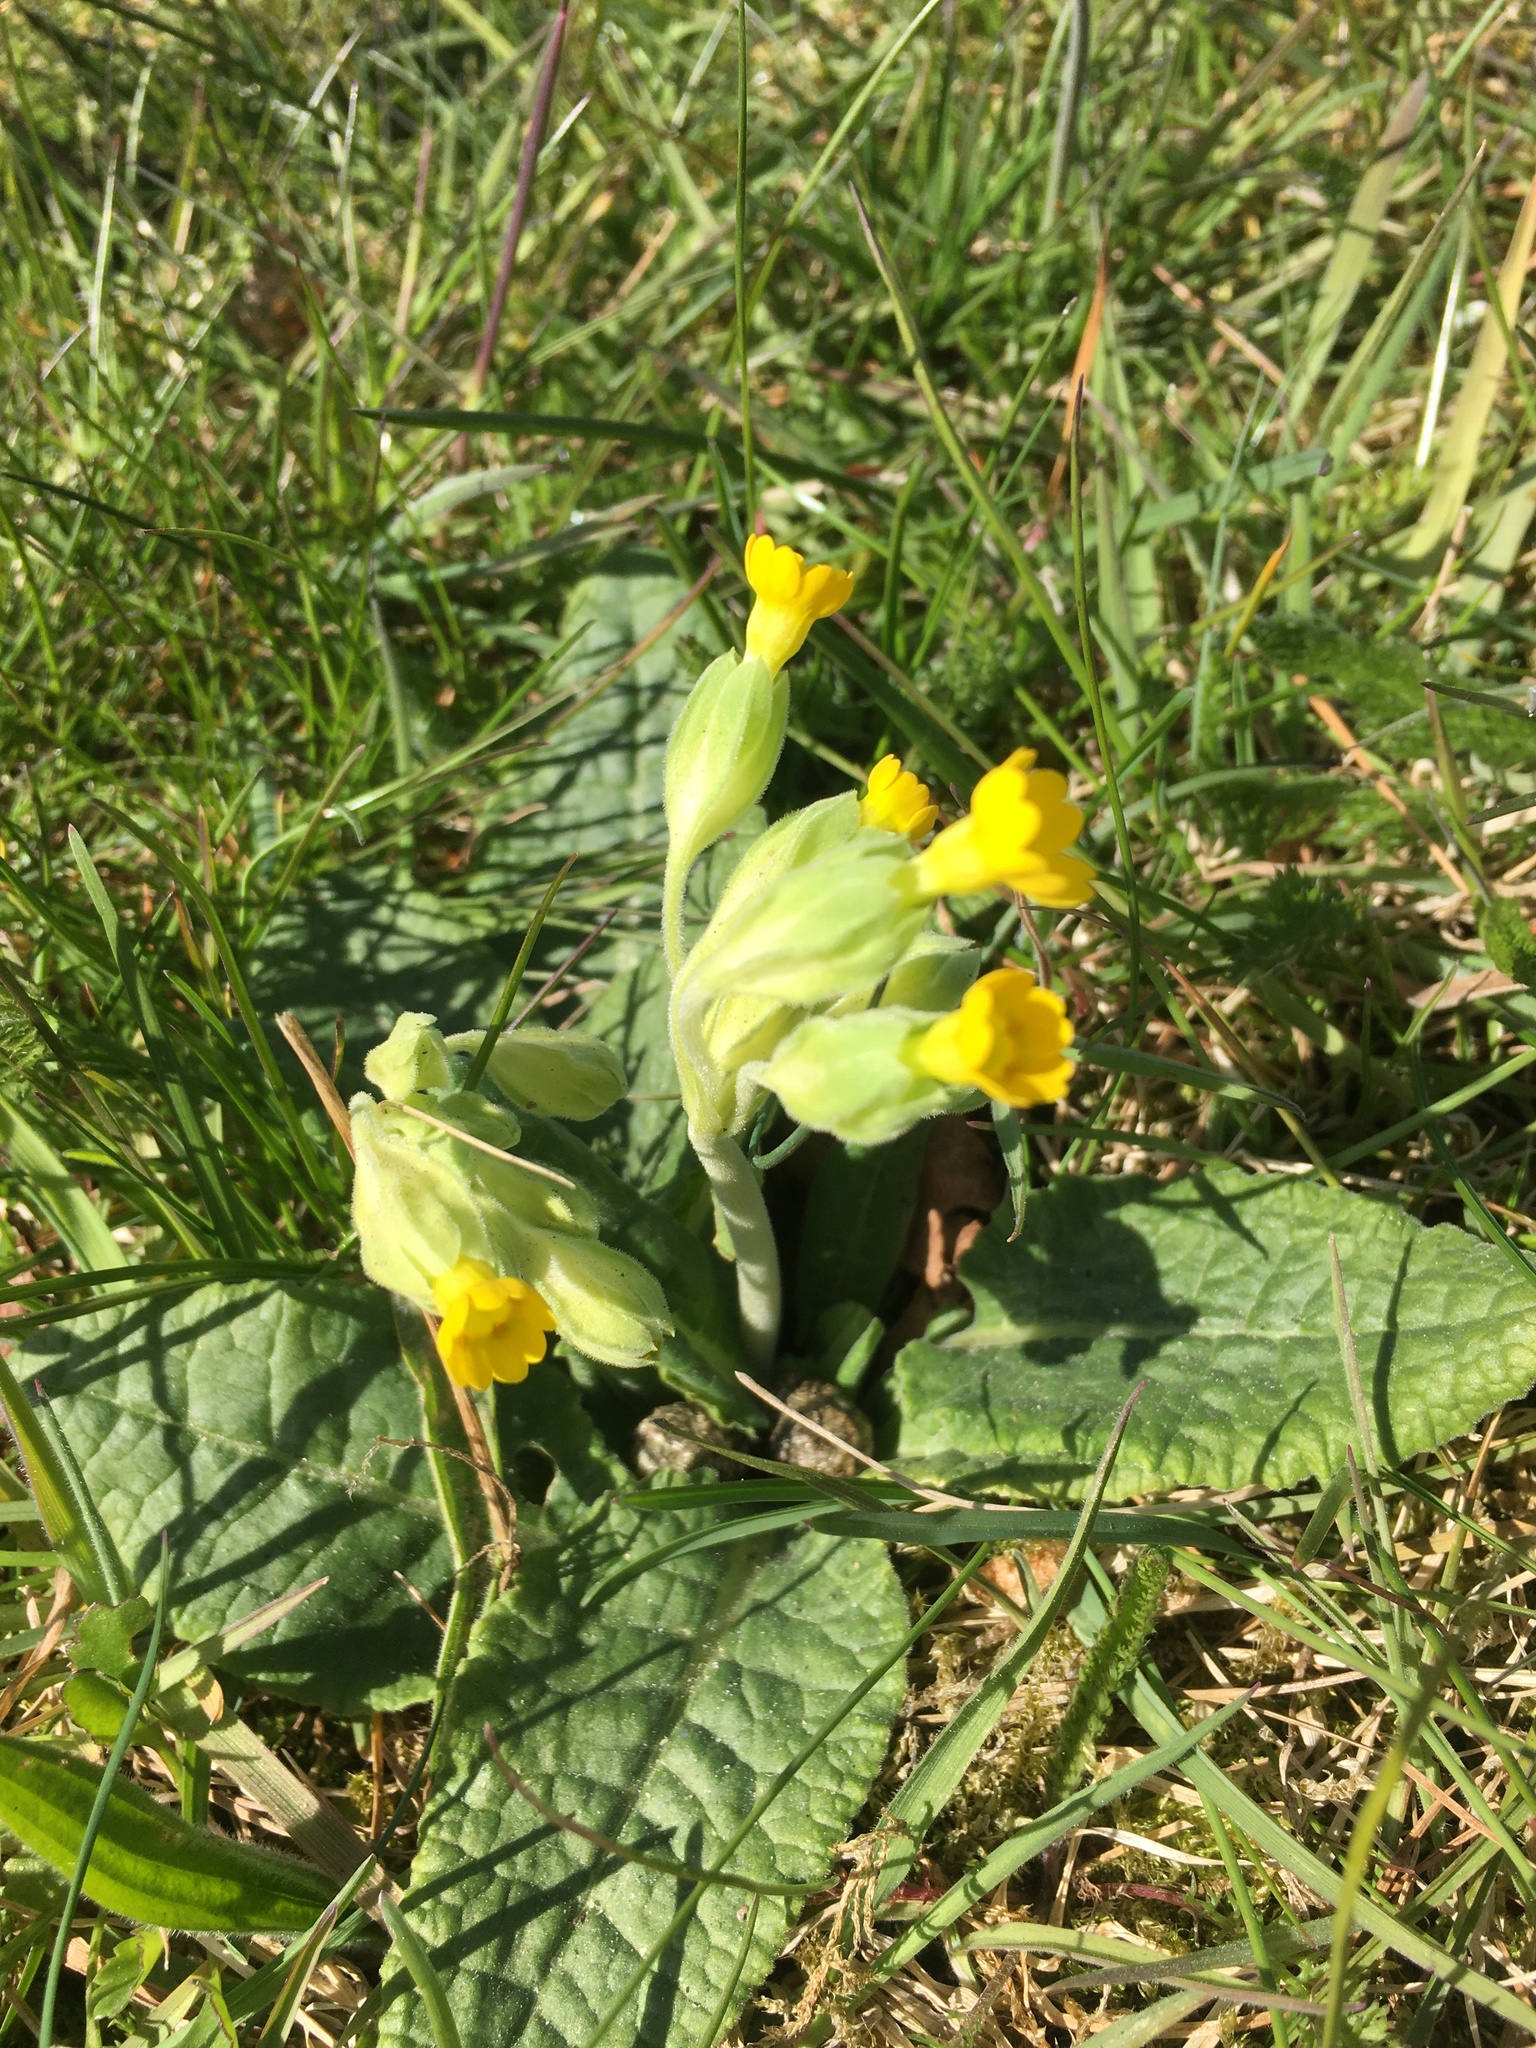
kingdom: Plantae
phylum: Tracheophyta
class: Magnoliopsida
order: Ericales
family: Primulaceae
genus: Primula
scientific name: Primula veris
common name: Cowslip
